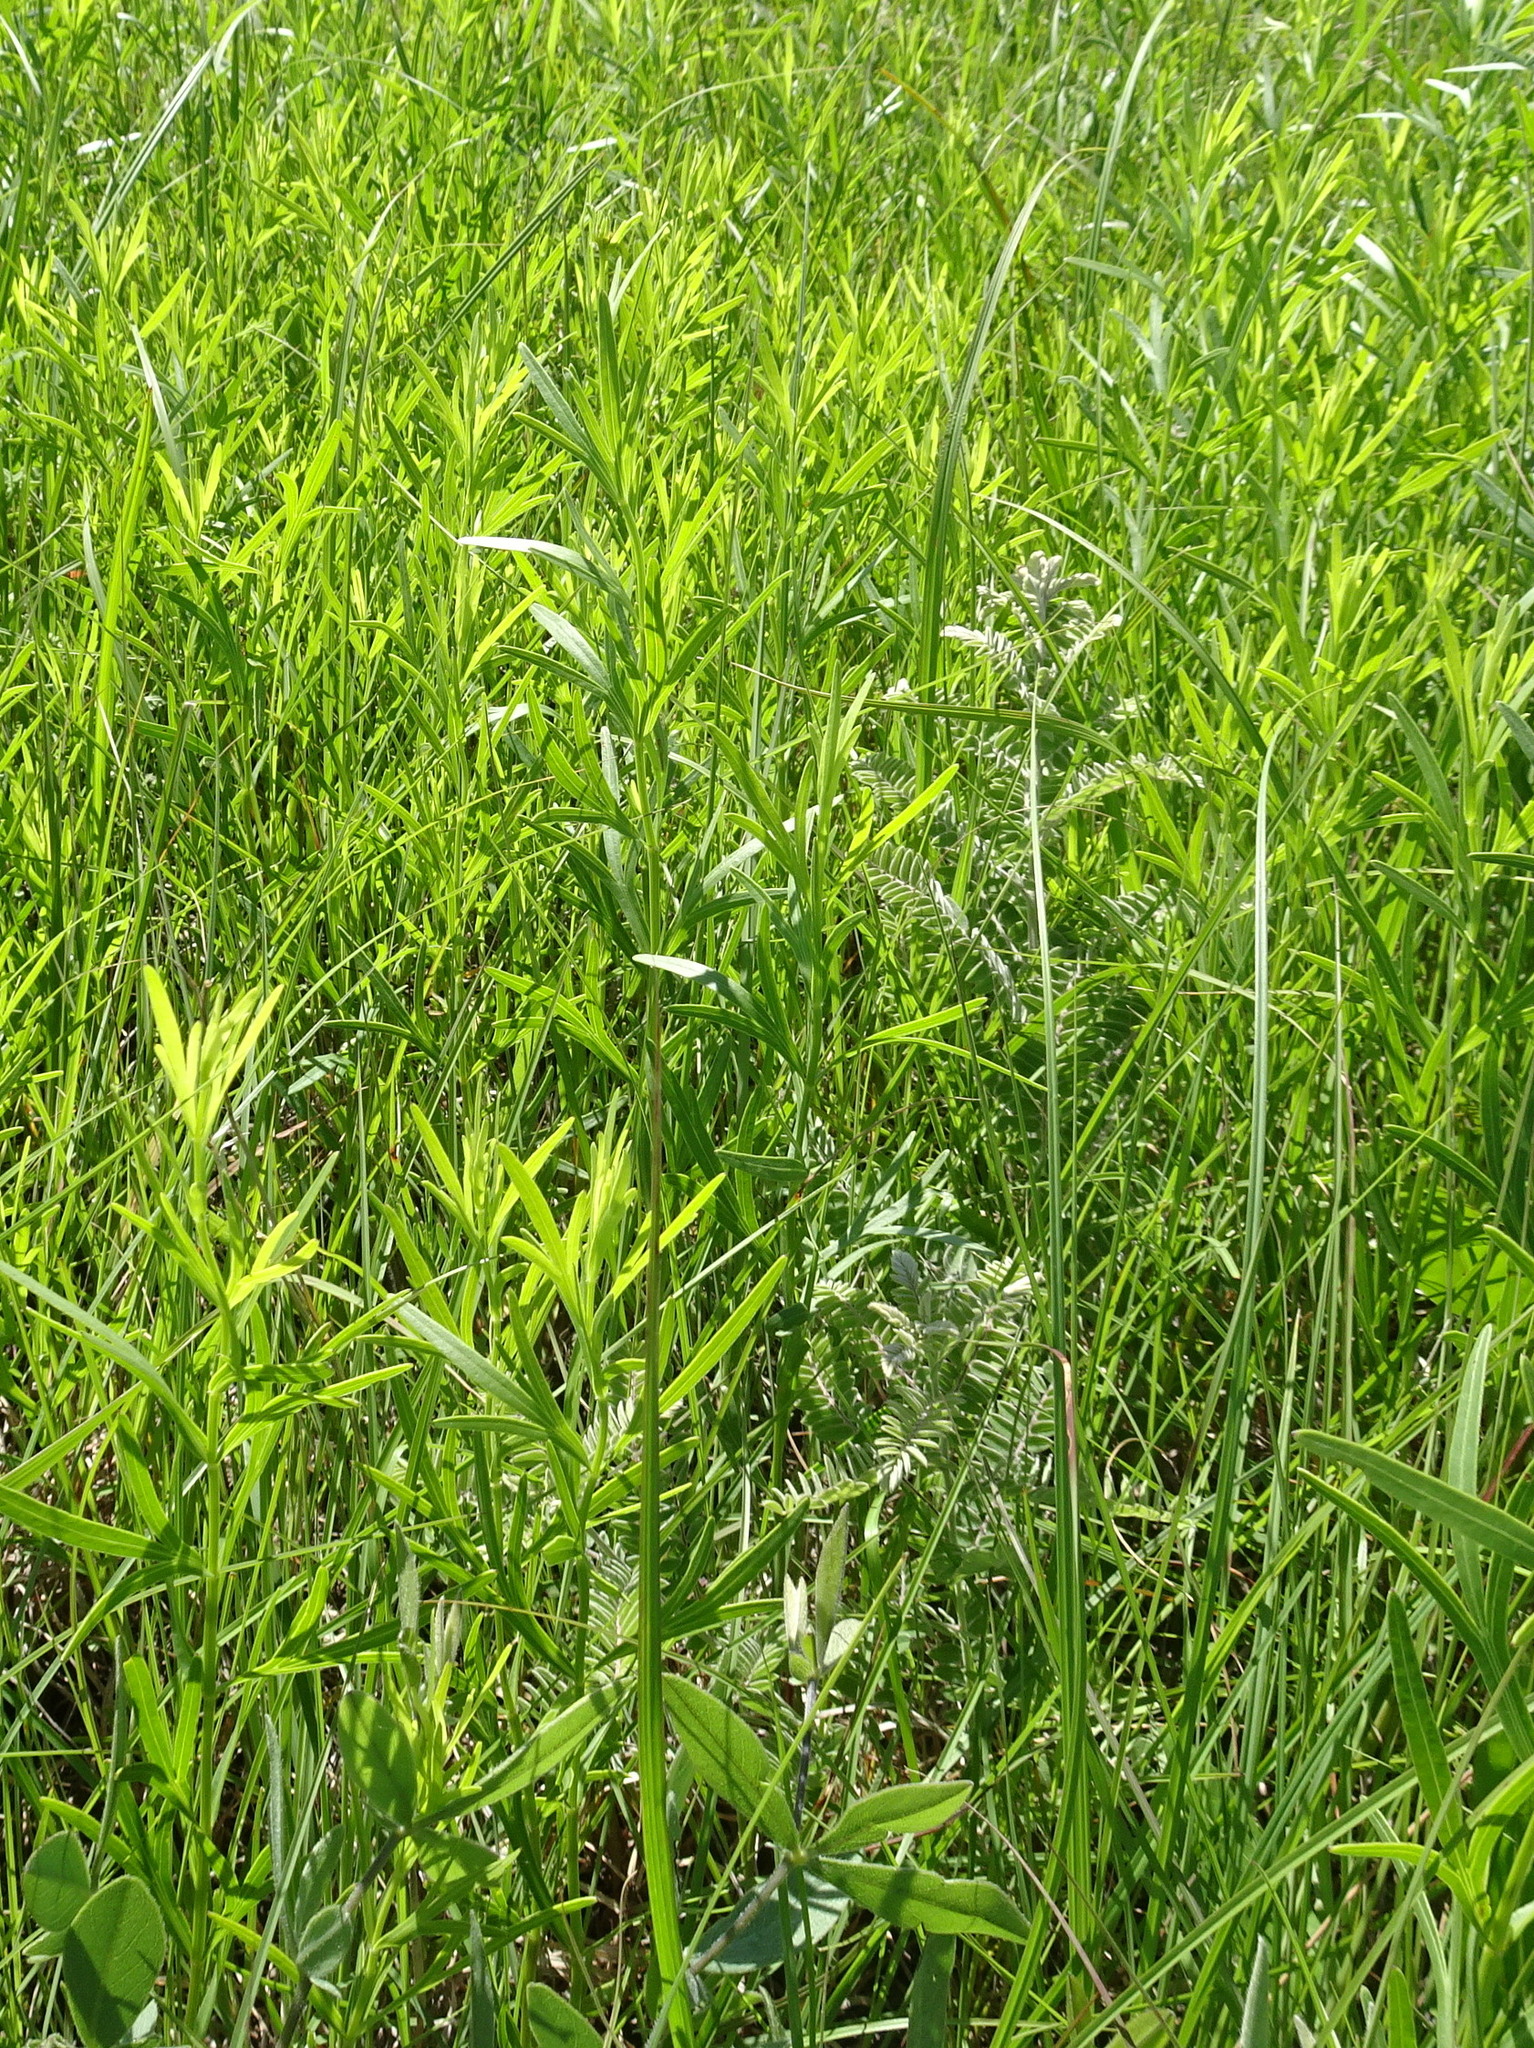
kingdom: Plantae
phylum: Tracheophyta
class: Magnoliopsida
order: Asterales
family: Asteraceae
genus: Coreopsis
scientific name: Coreopsis palmata
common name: Prairie coreopsis
